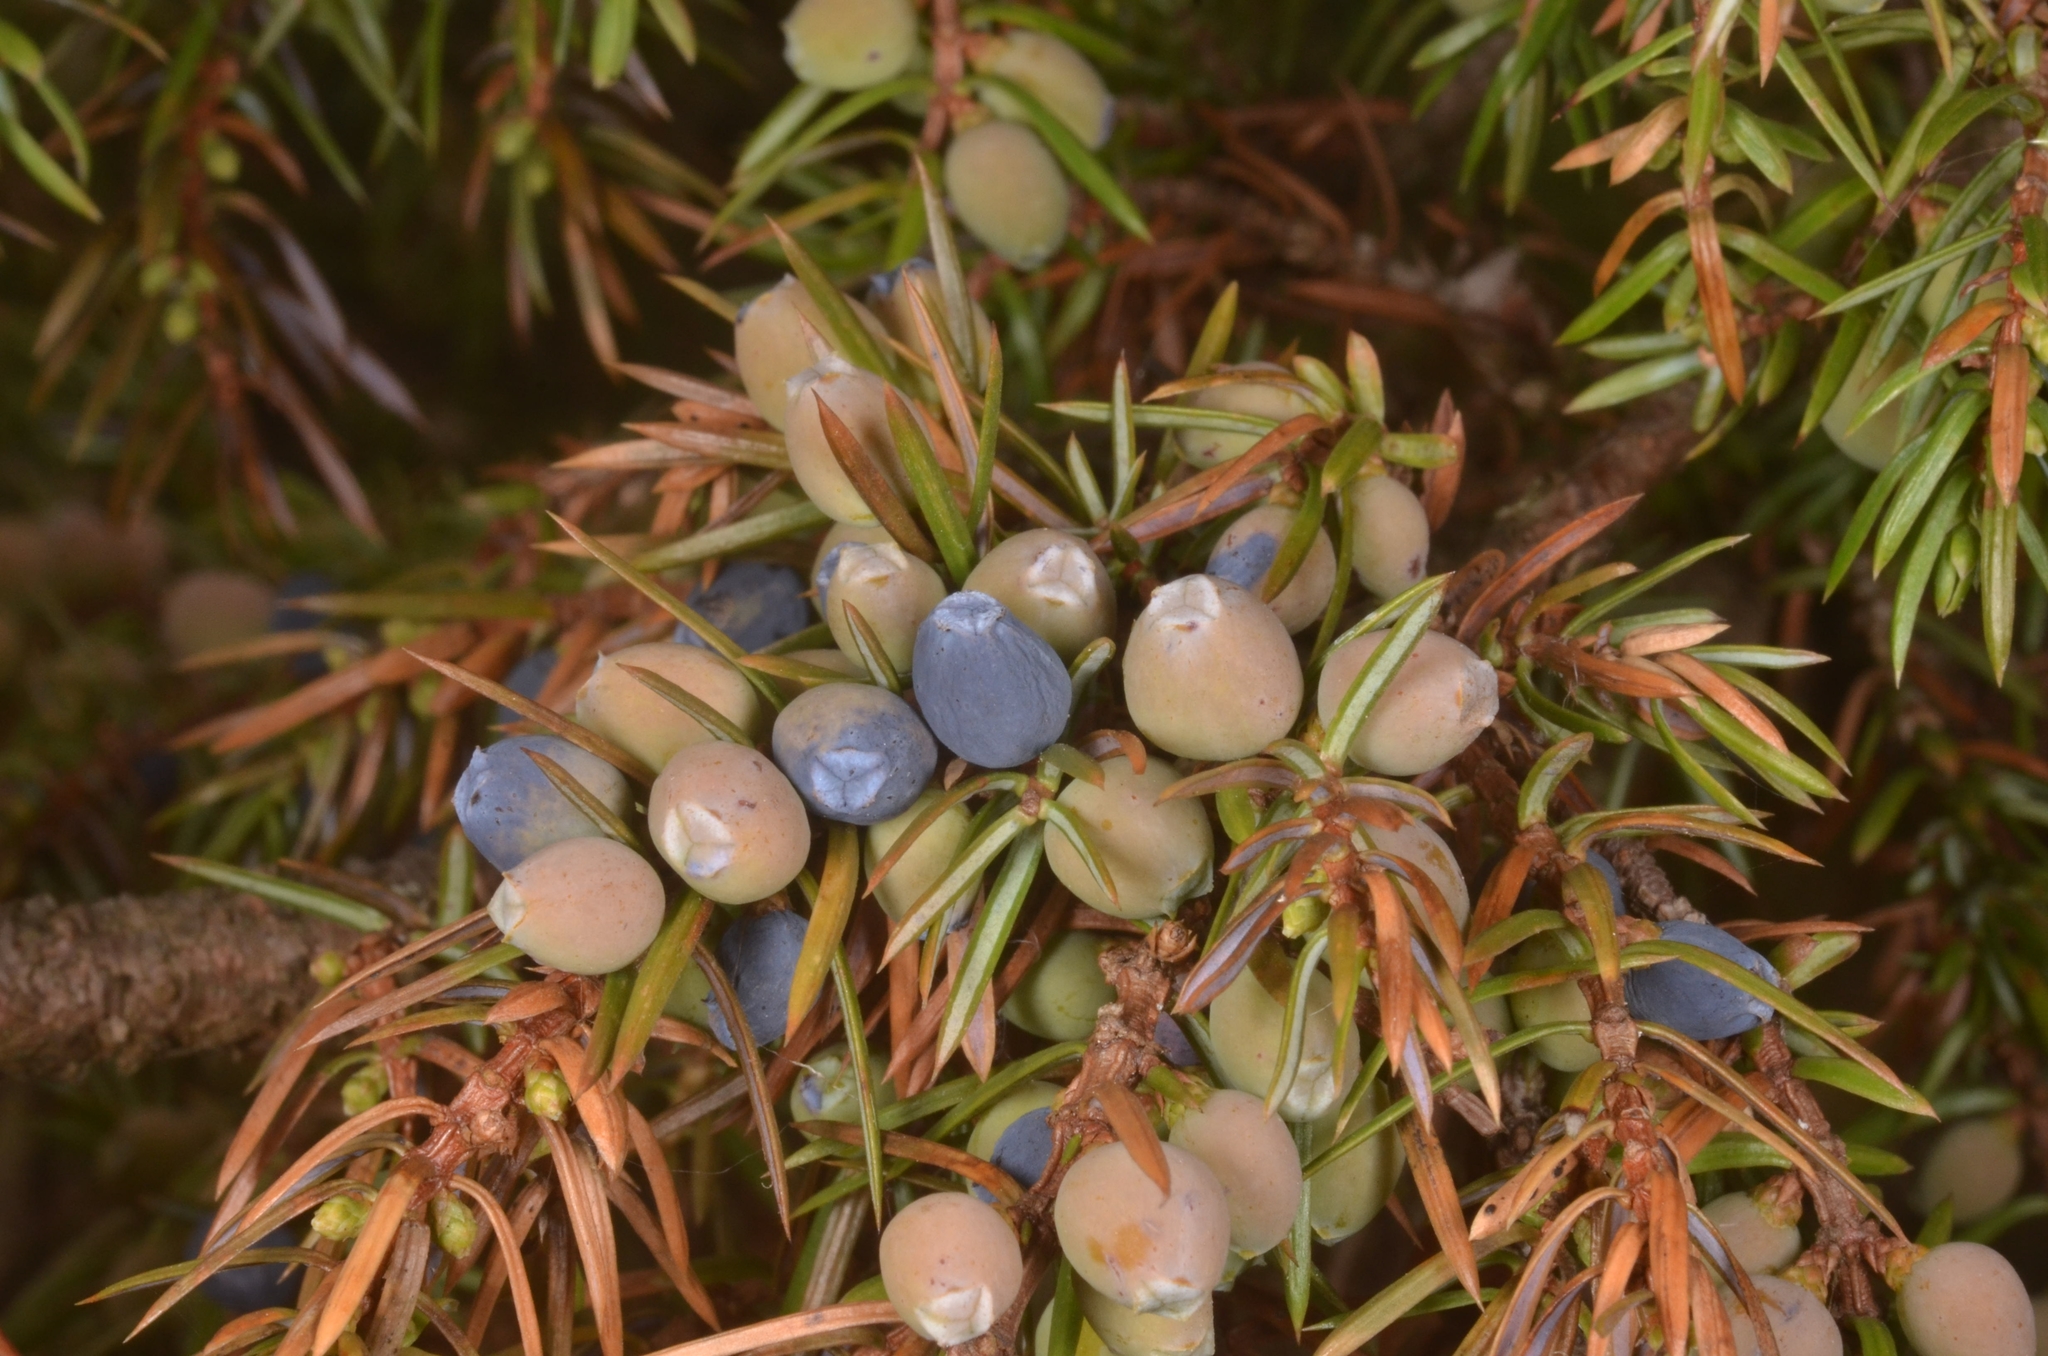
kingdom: Plantae
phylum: Tracheophyta
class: Pinopsida
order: Pinales
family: Cupressaceae
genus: Juniperus
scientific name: Juniperus communis
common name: Common juniper
